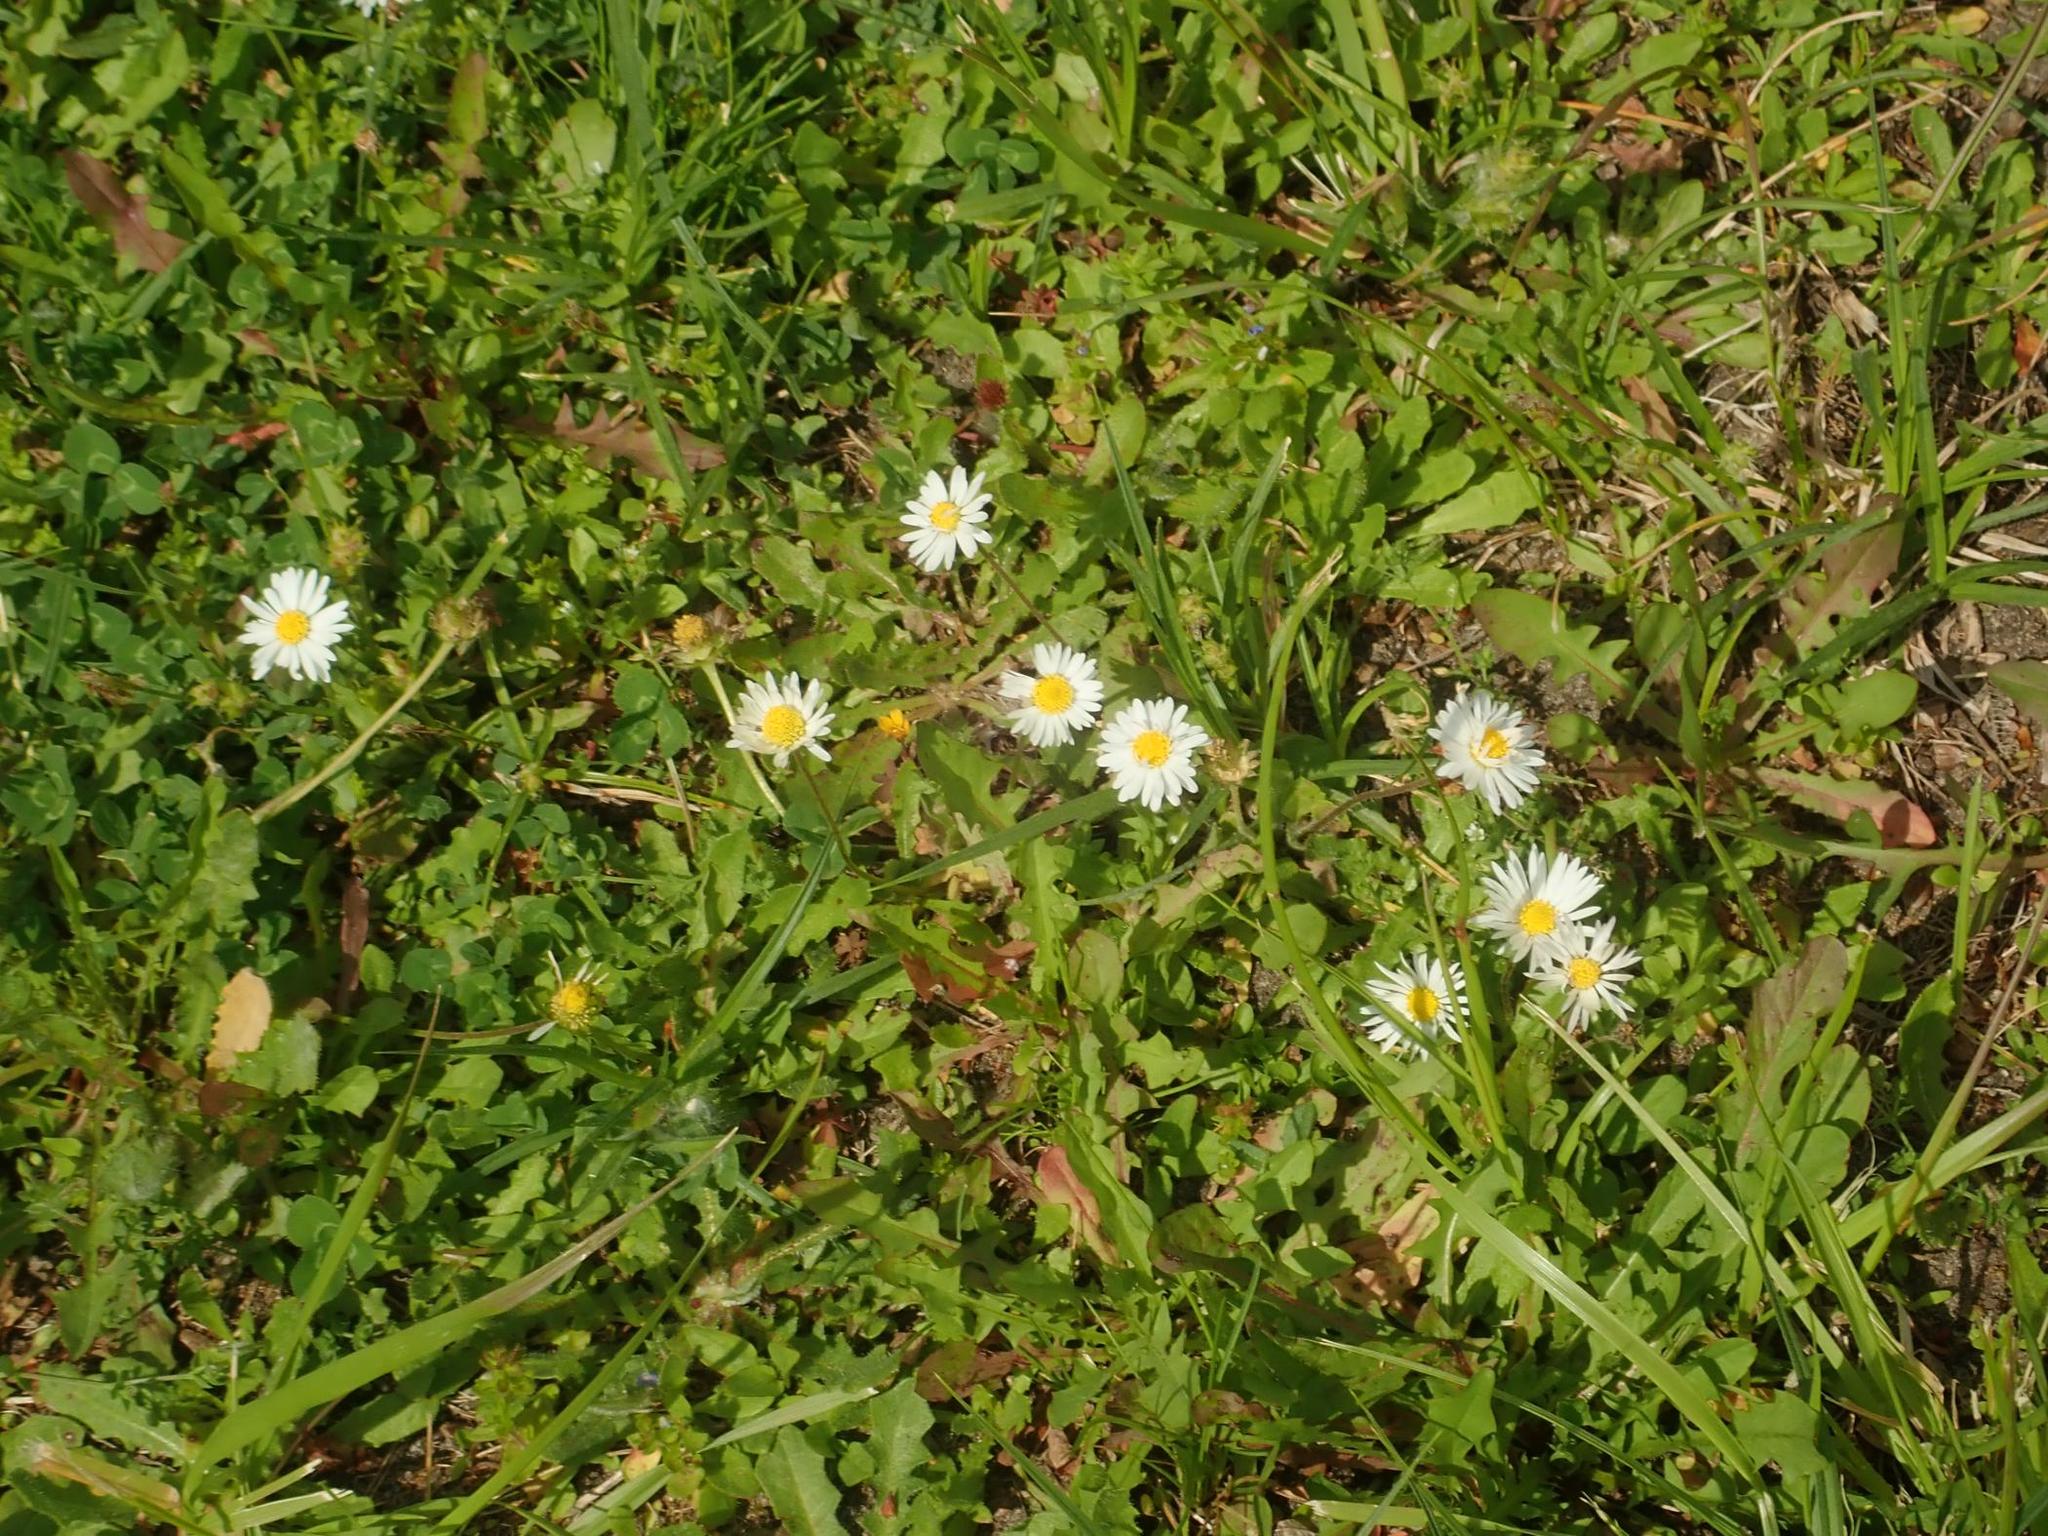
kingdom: Plantae
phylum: Tracheophyta
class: Magnoliopsida
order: Asterales
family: Asteraceae
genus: Bellis
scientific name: Bellis perennis
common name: Lawndaisy
